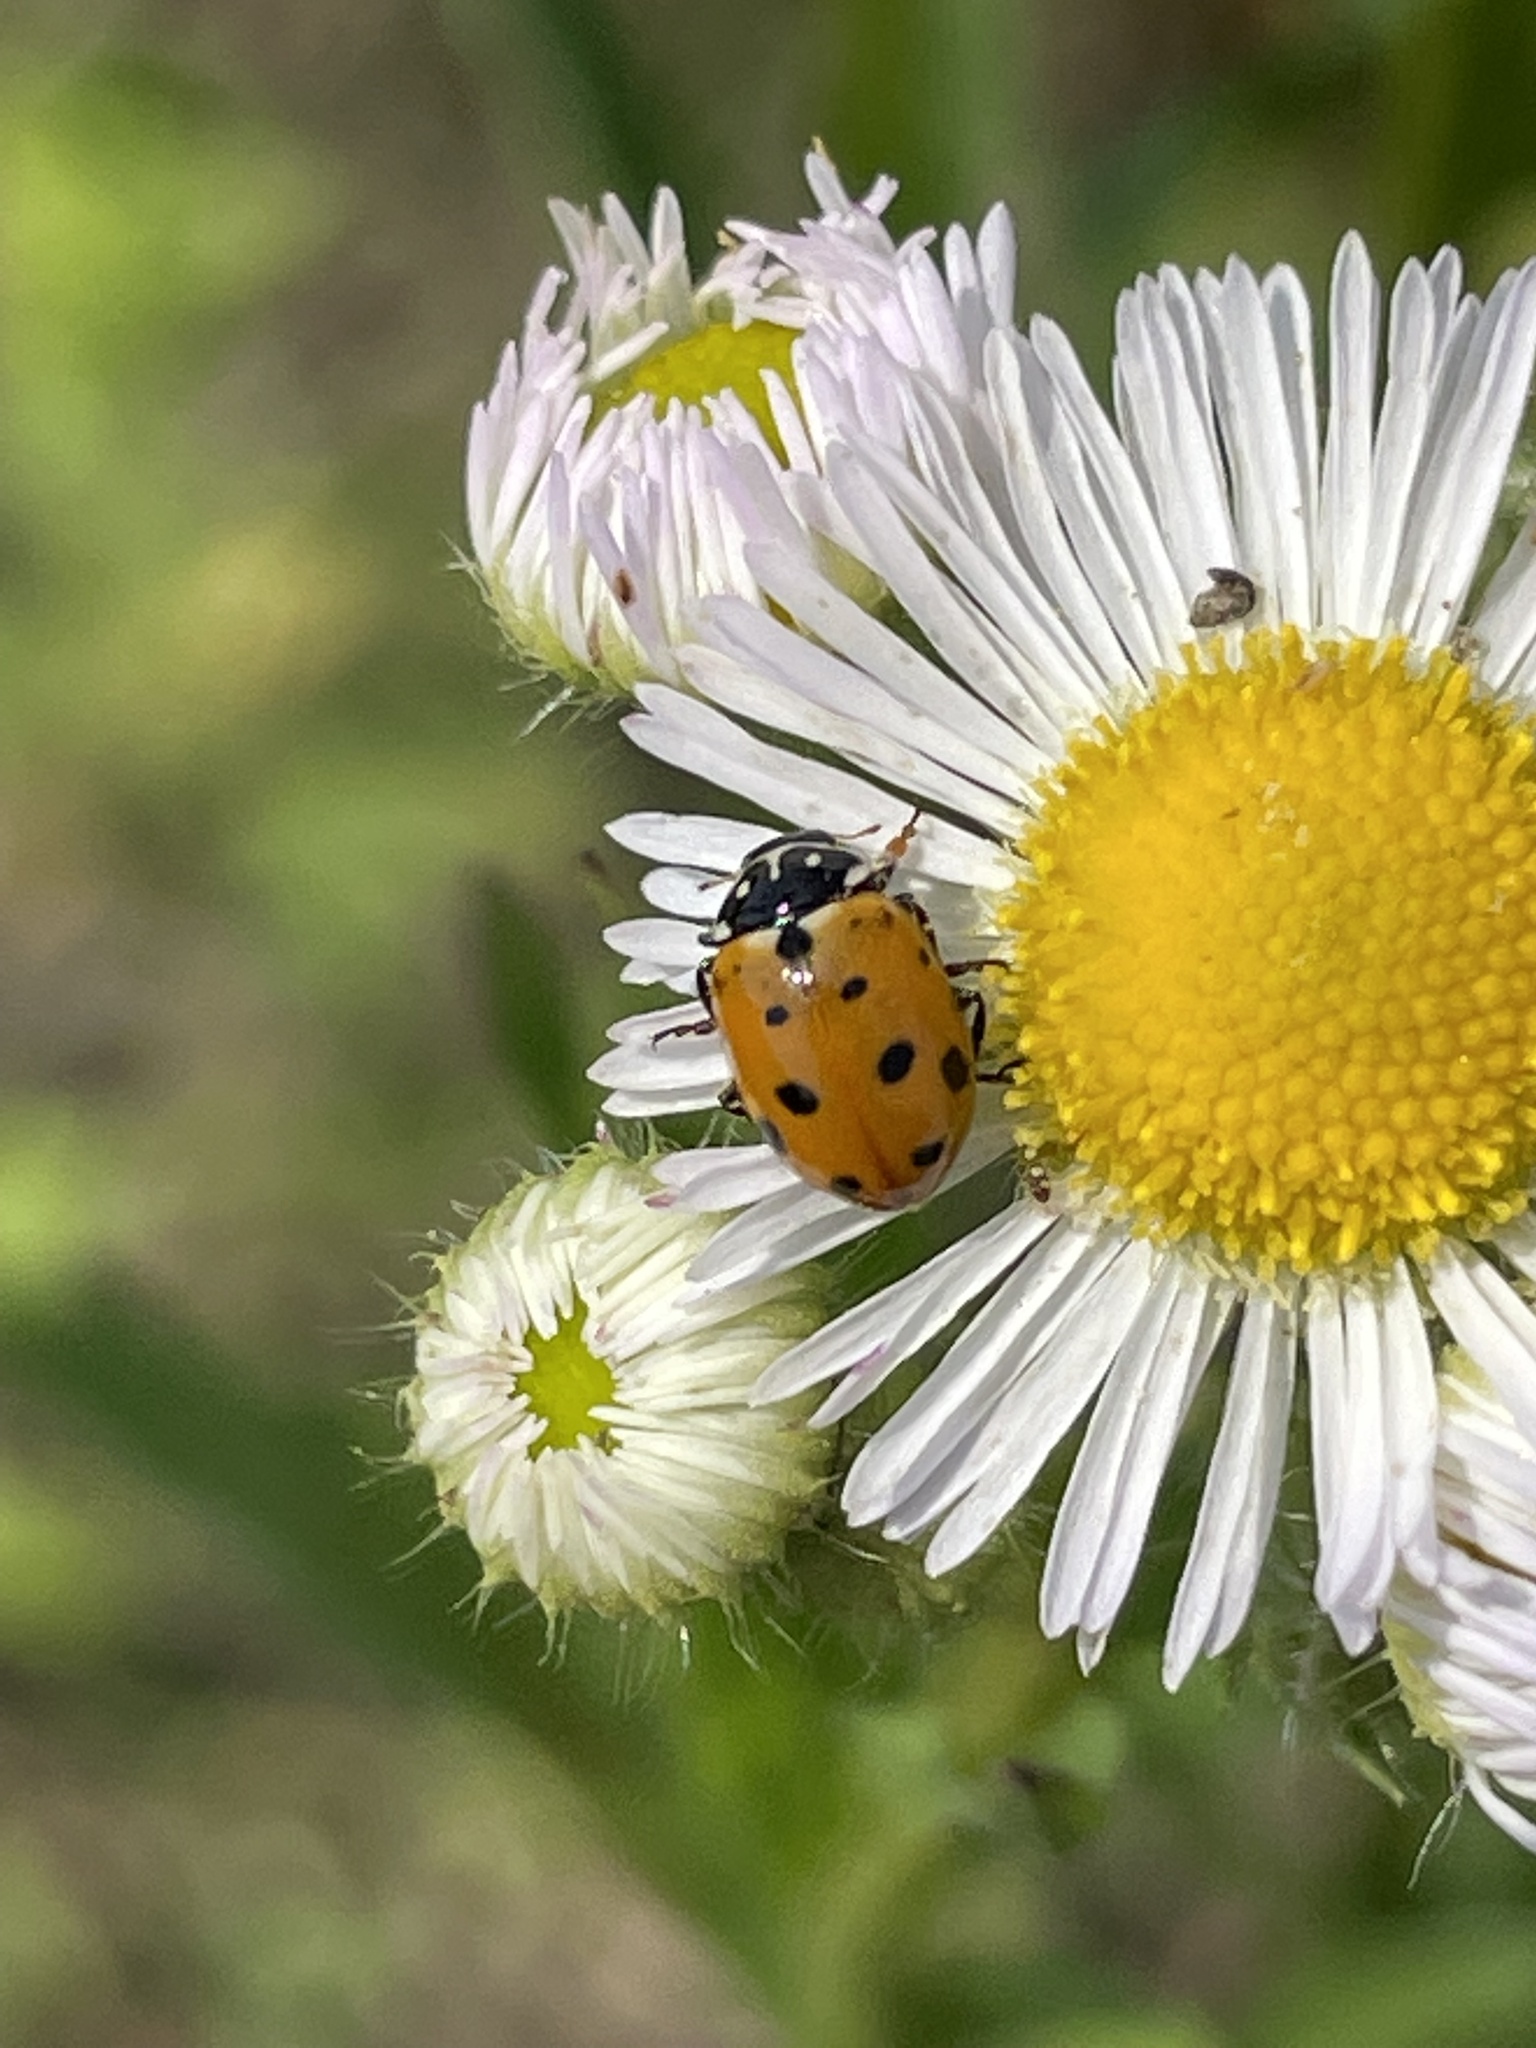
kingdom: Animalia
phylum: Arthropoda
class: Insecta
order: Coleoptera
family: Coccinellidae
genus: Hippodamia
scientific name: Hippodamia variegata
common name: Ladybird beetle
